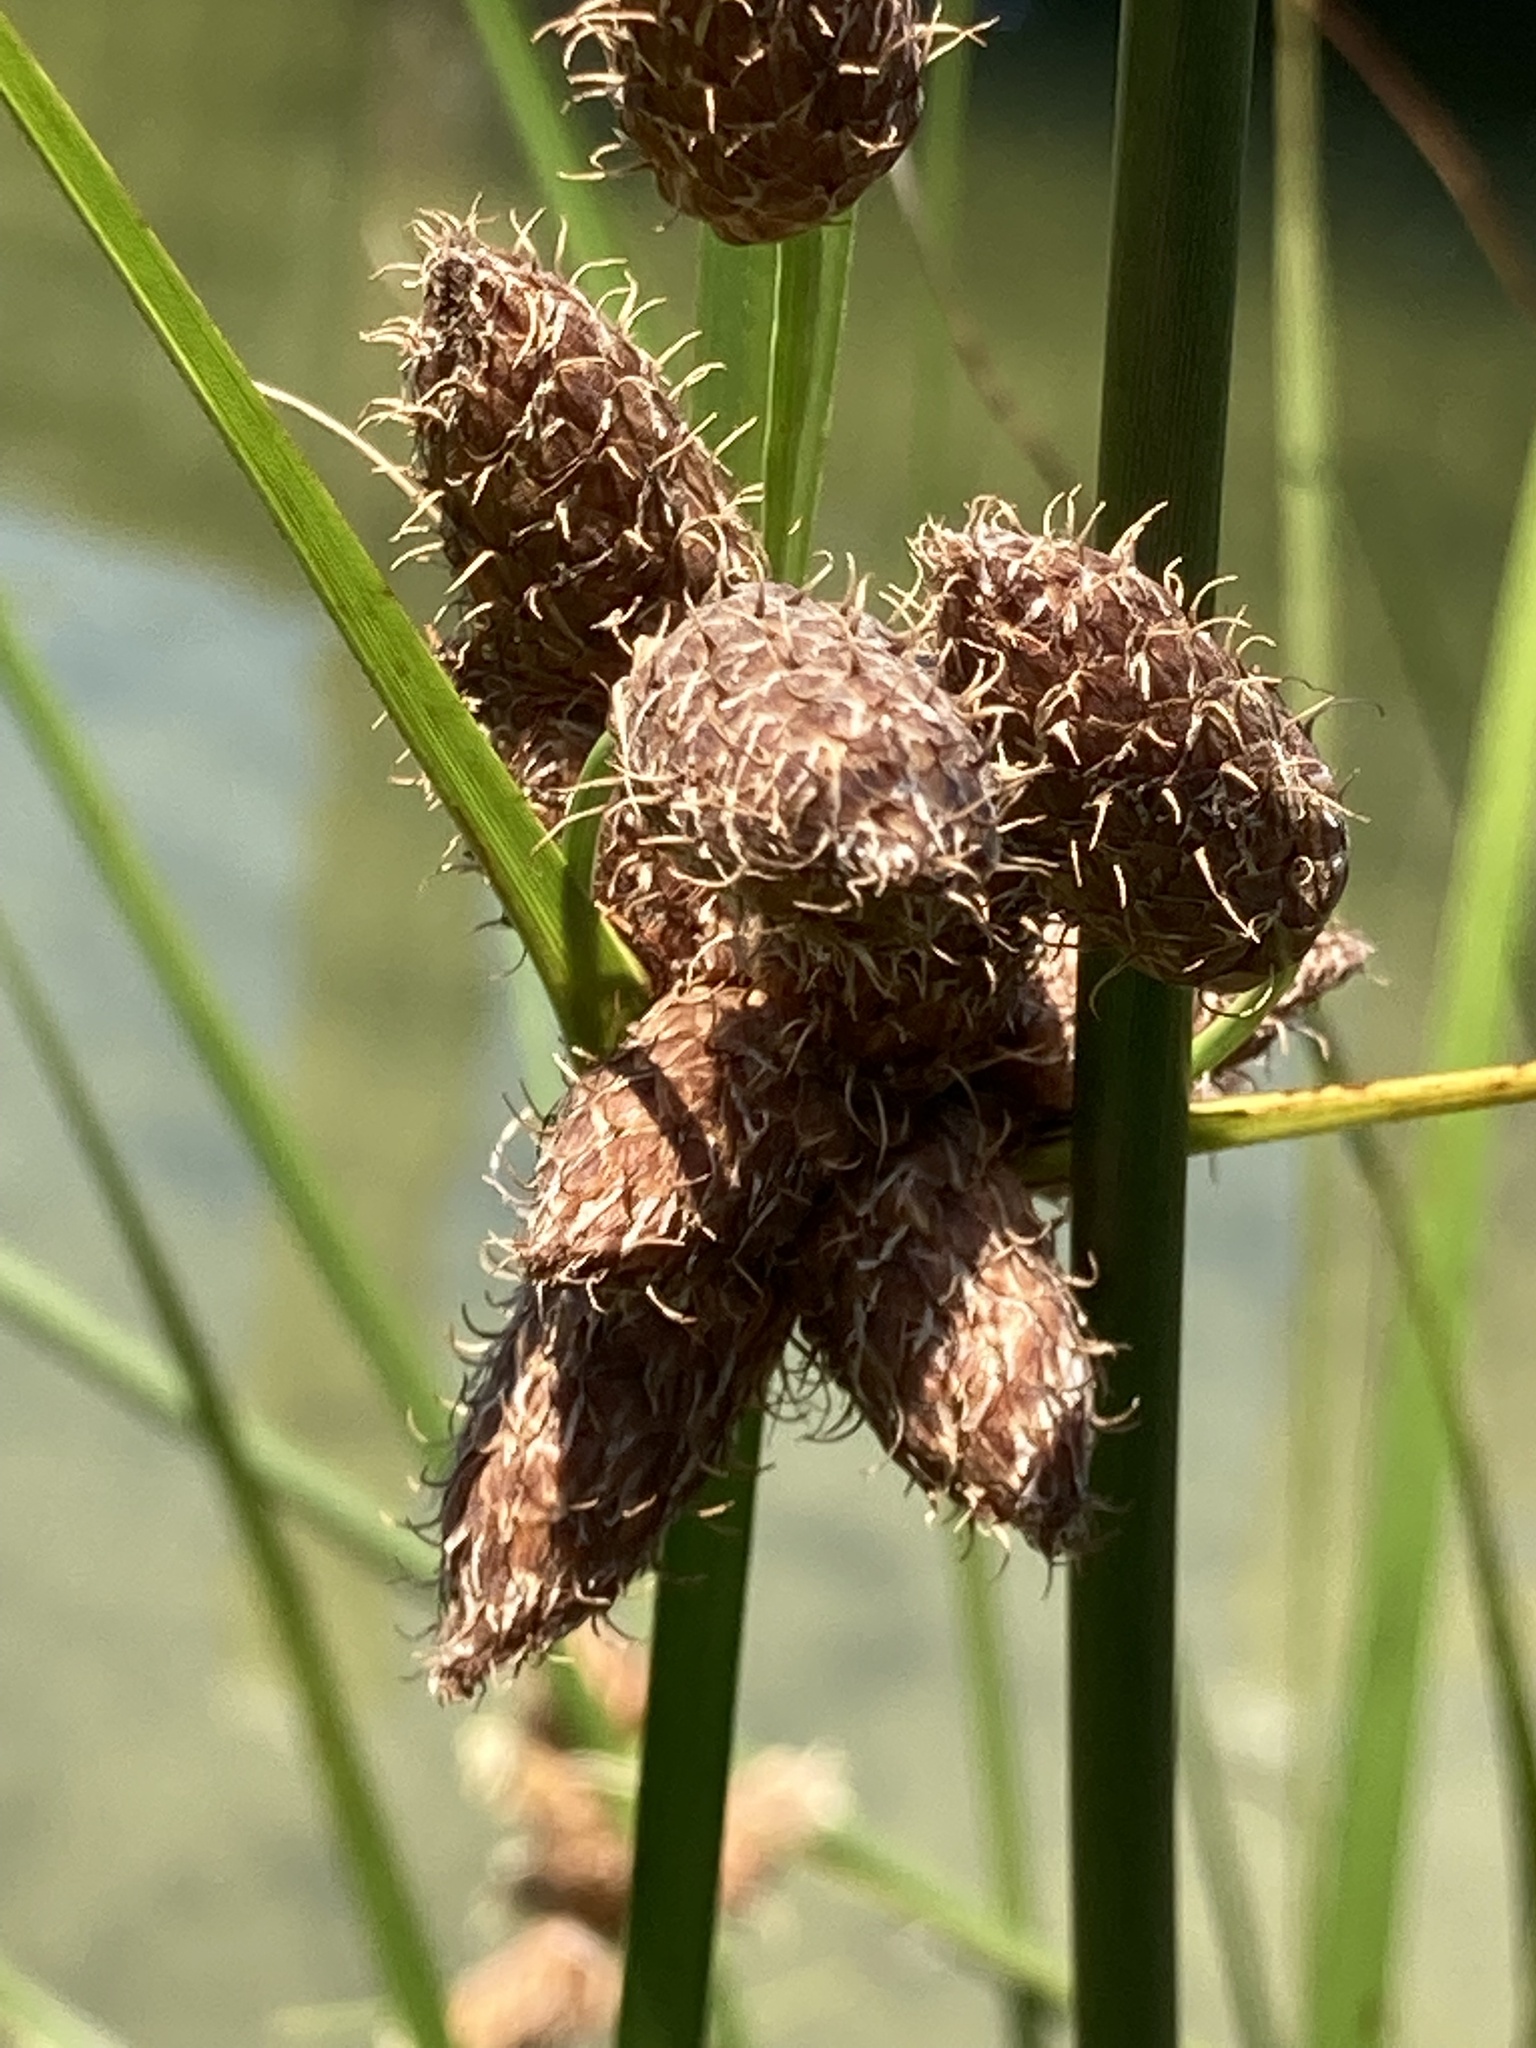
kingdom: Plantae
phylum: Tracheophyta
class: Liliopsida
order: Poales
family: Cyperaceae
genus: Bolboschoenus
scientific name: Bolboschoenus robustus
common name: Seacoast bulrush
